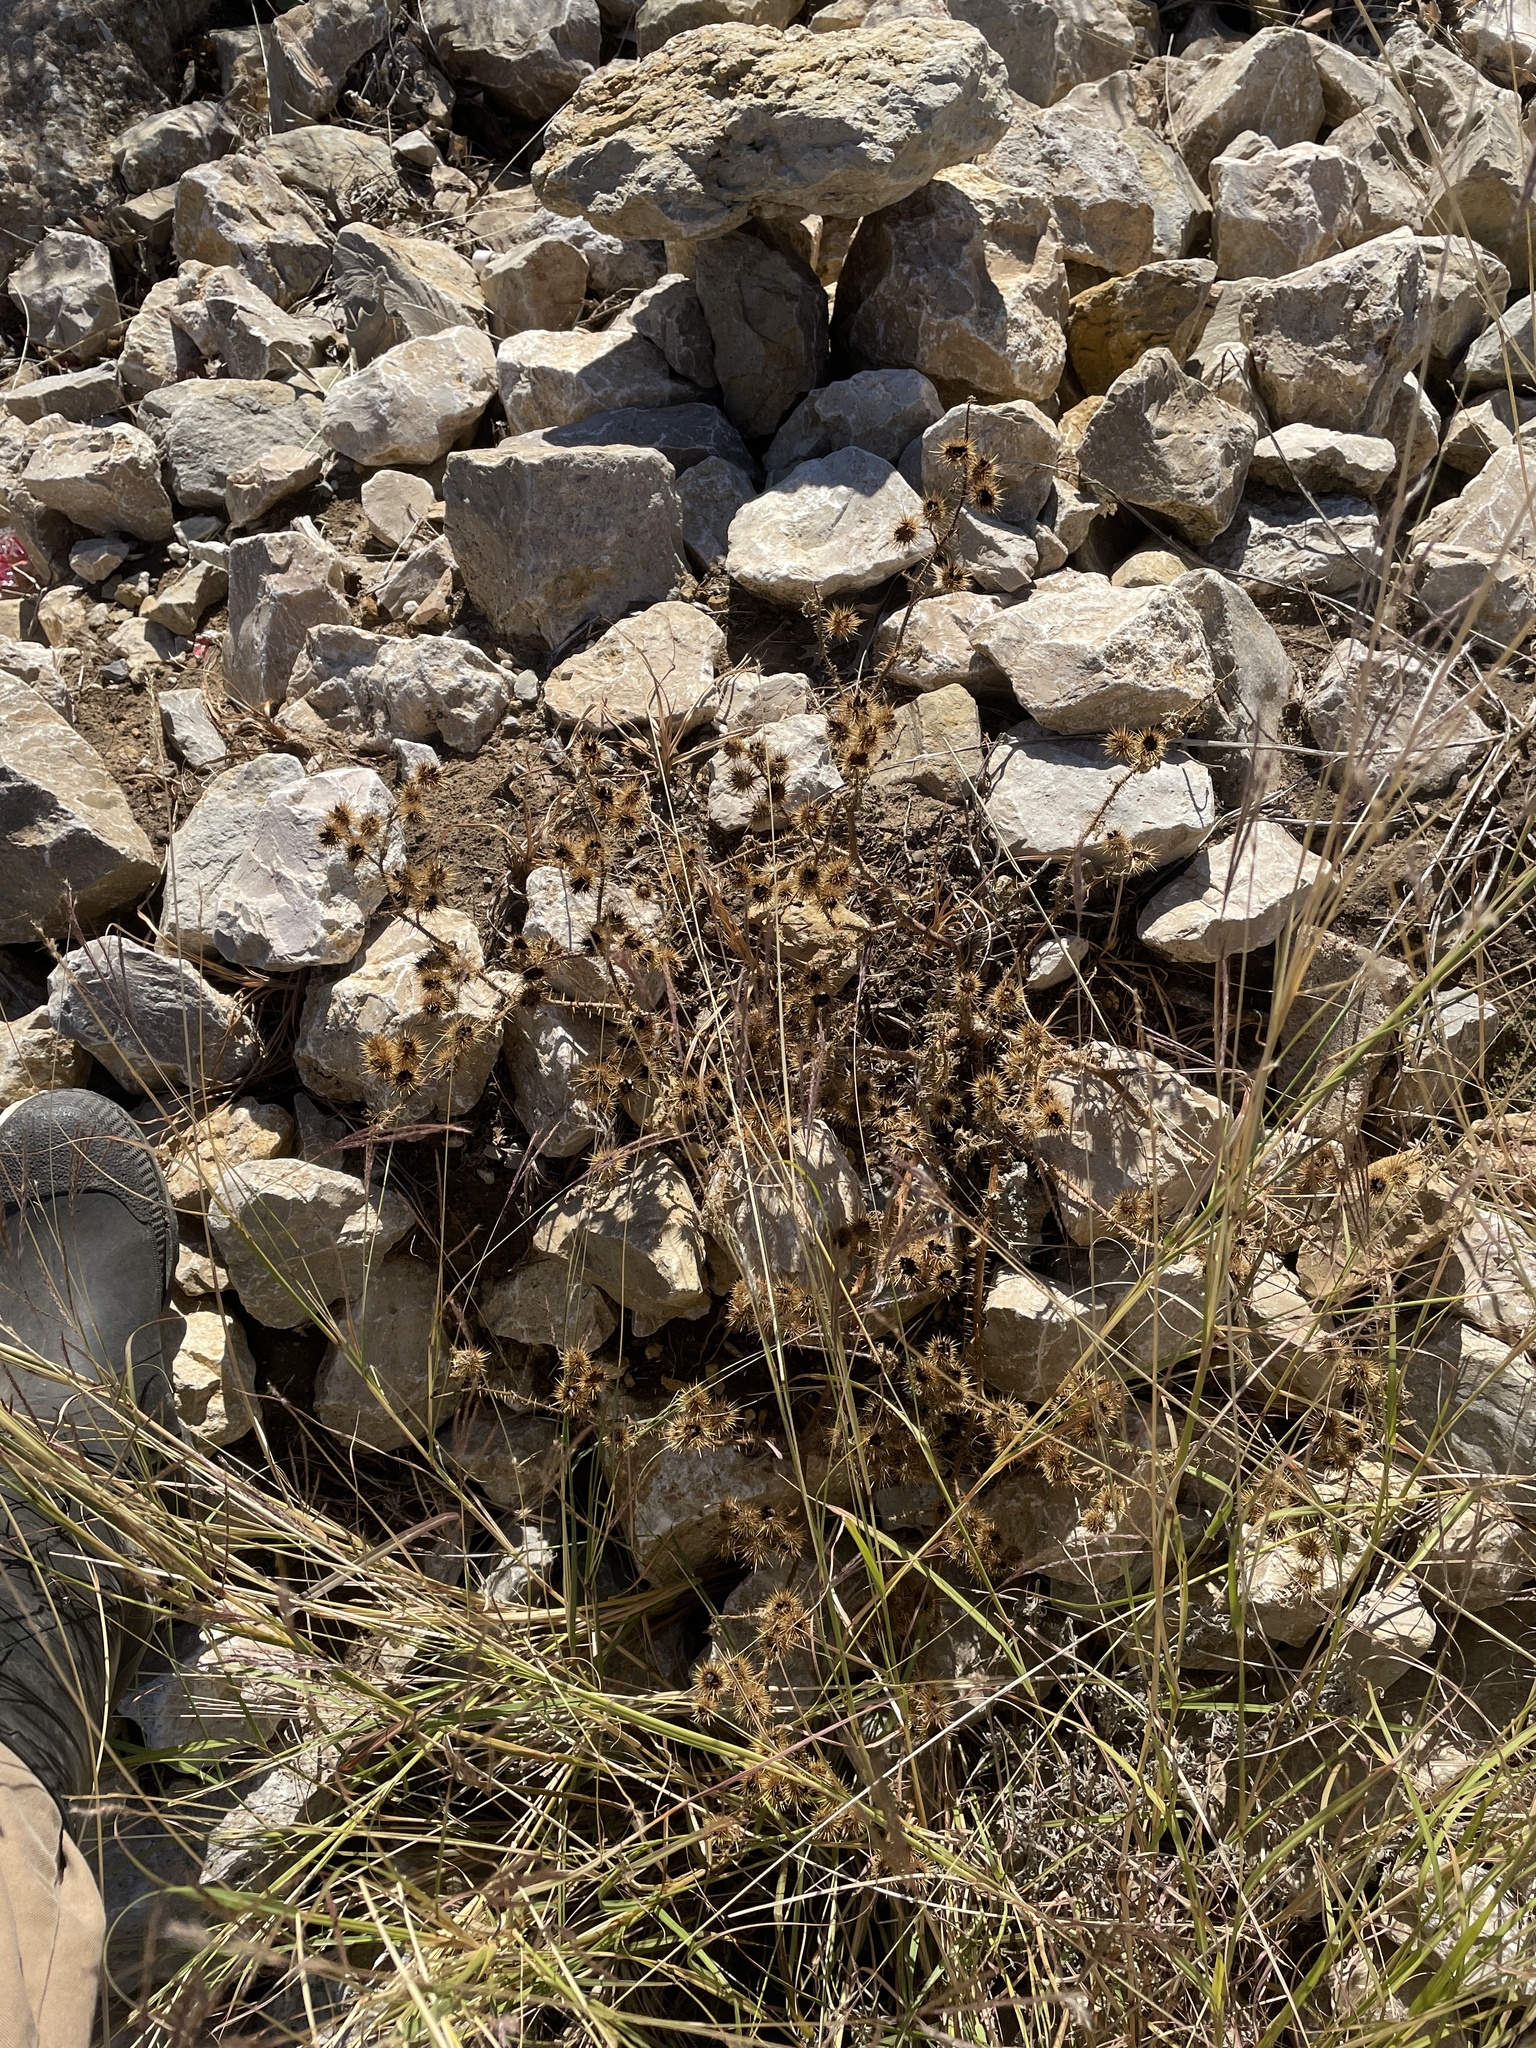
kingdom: Plantae
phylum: Tracheophyta
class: Magnoliopsida
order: Solanales
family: Solanaceae
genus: Solanum
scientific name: Solanum angustifolium
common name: Buffalobur nightshade
